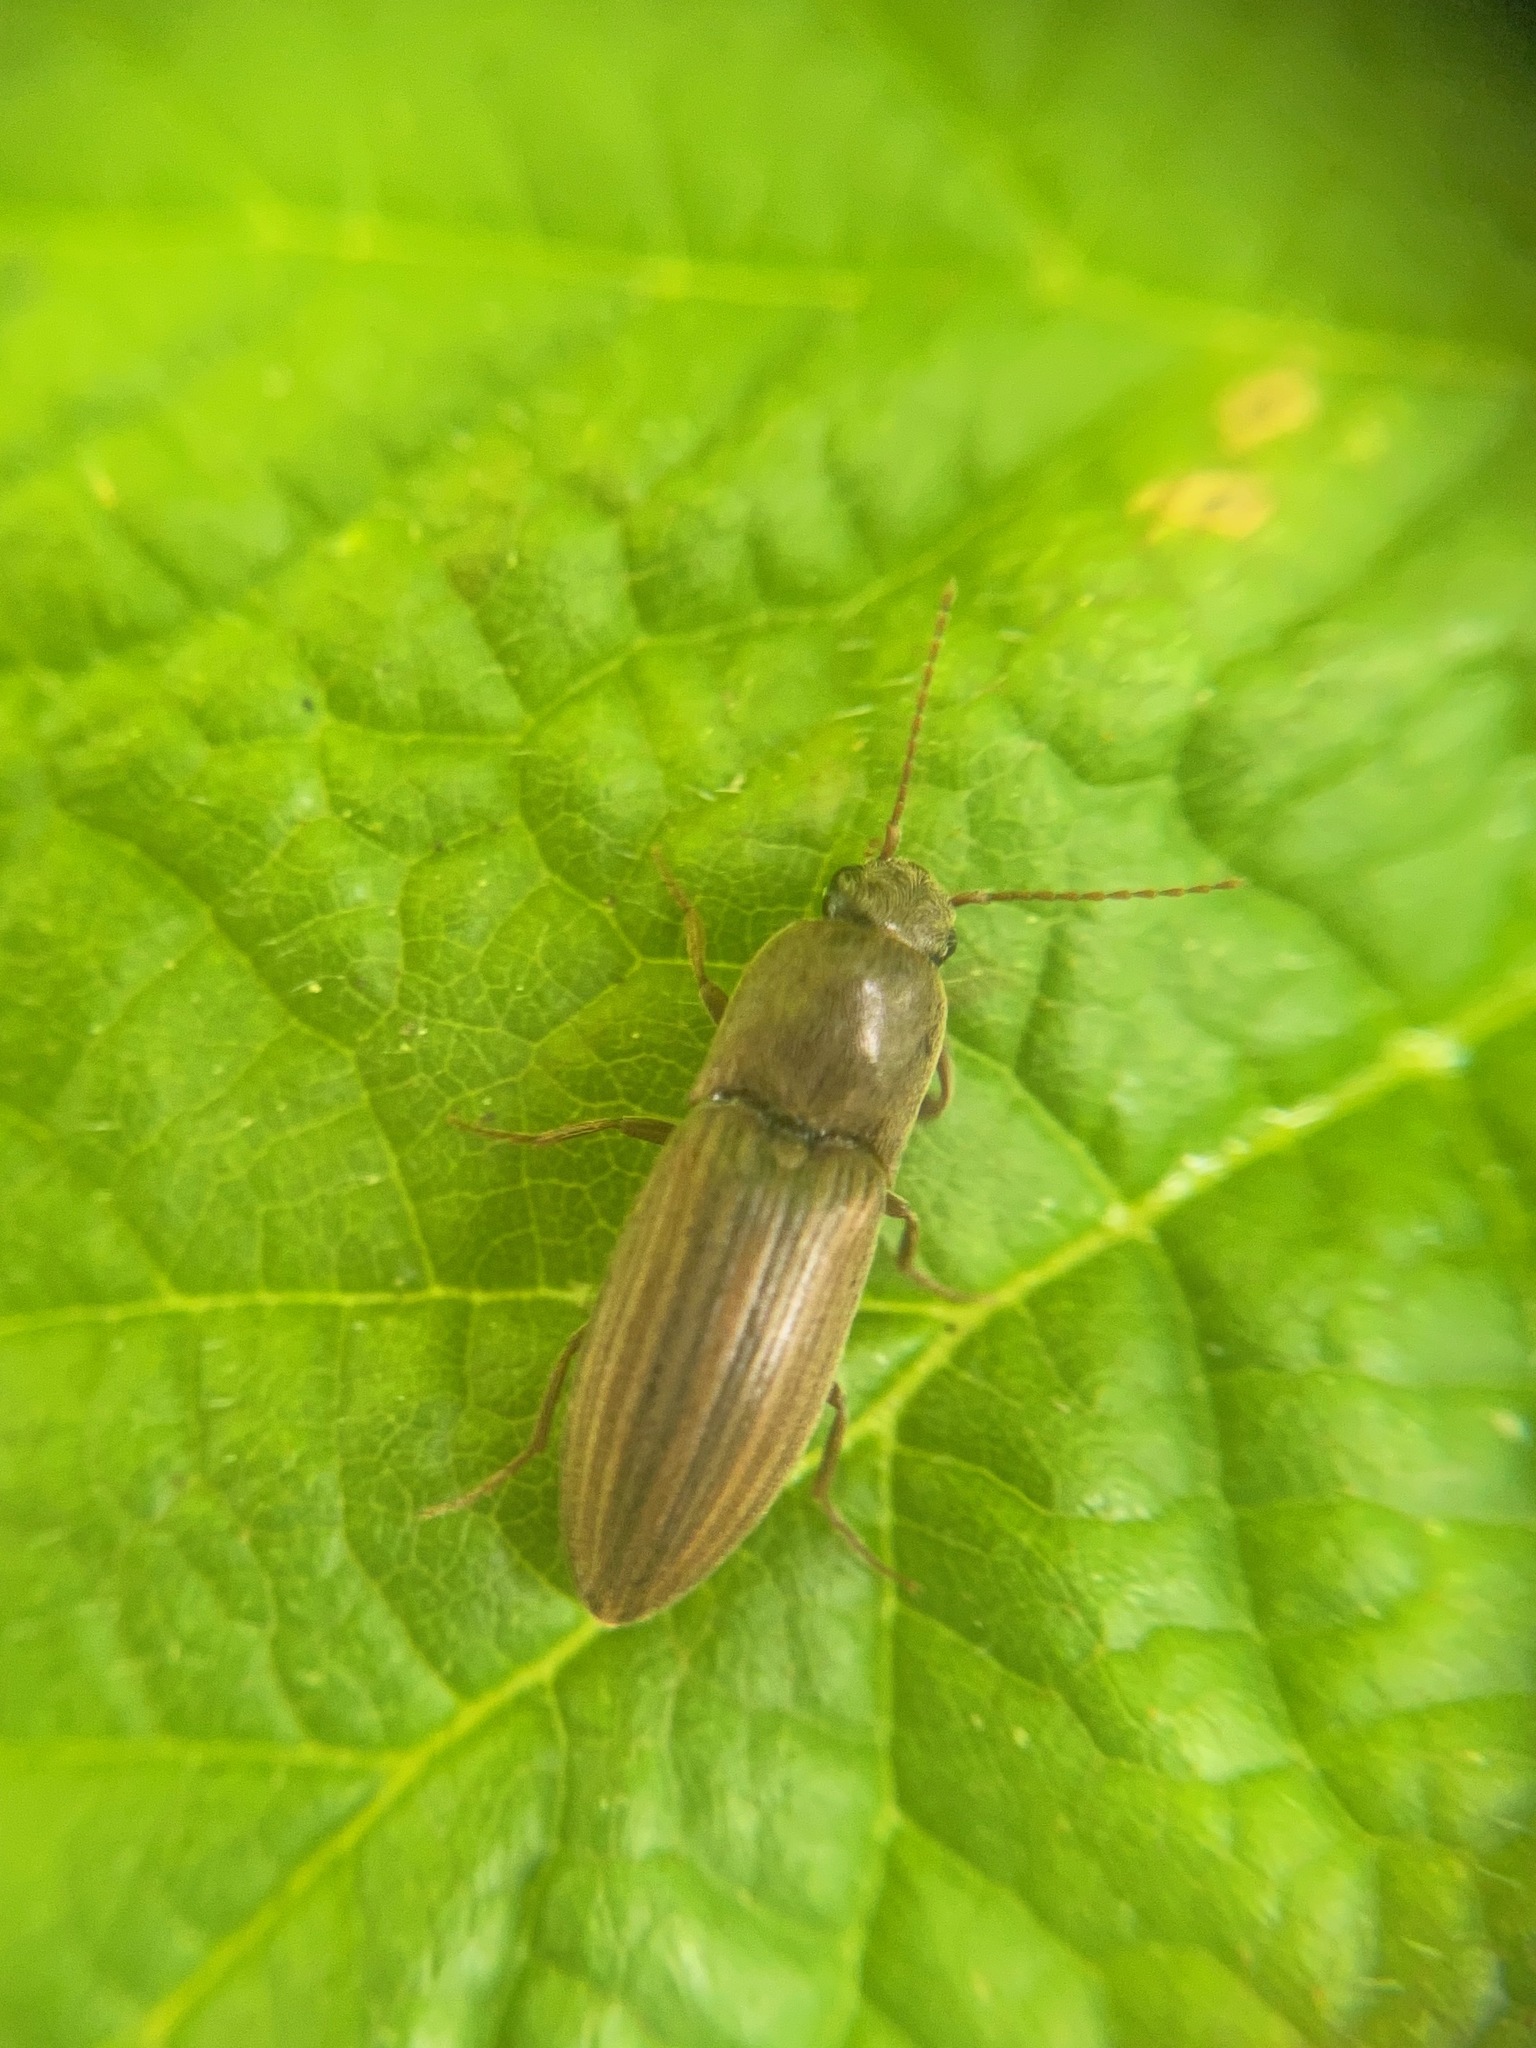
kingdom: Animalia
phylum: Arthropoda
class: Insecta
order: Coleoptera
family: Elateridae
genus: Agriotes
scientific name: Agriotes lineatus
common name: Lined click beetle
